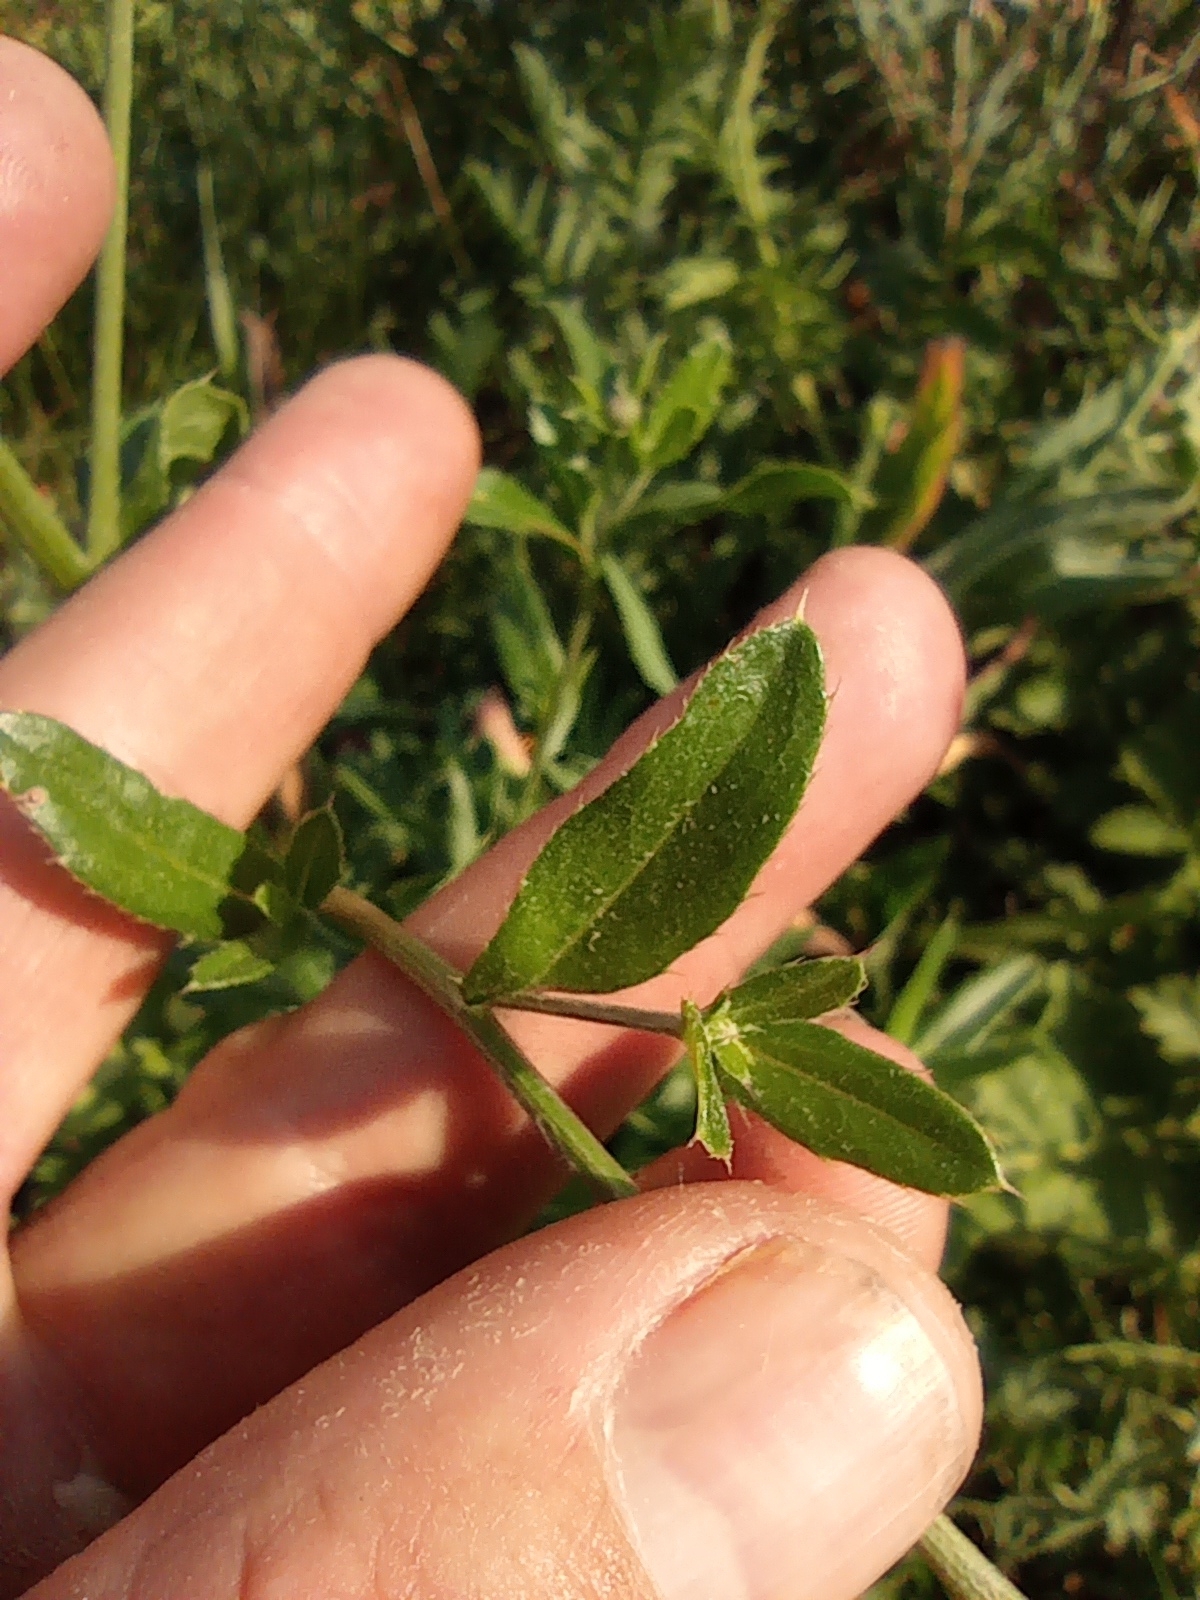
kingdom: Plantae
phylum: Tracheophyta
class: Magnoliopsida
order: Asterales
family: Asteraceae
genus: Cirsium
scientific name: Cirsium arvense
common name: Creeping thistle
